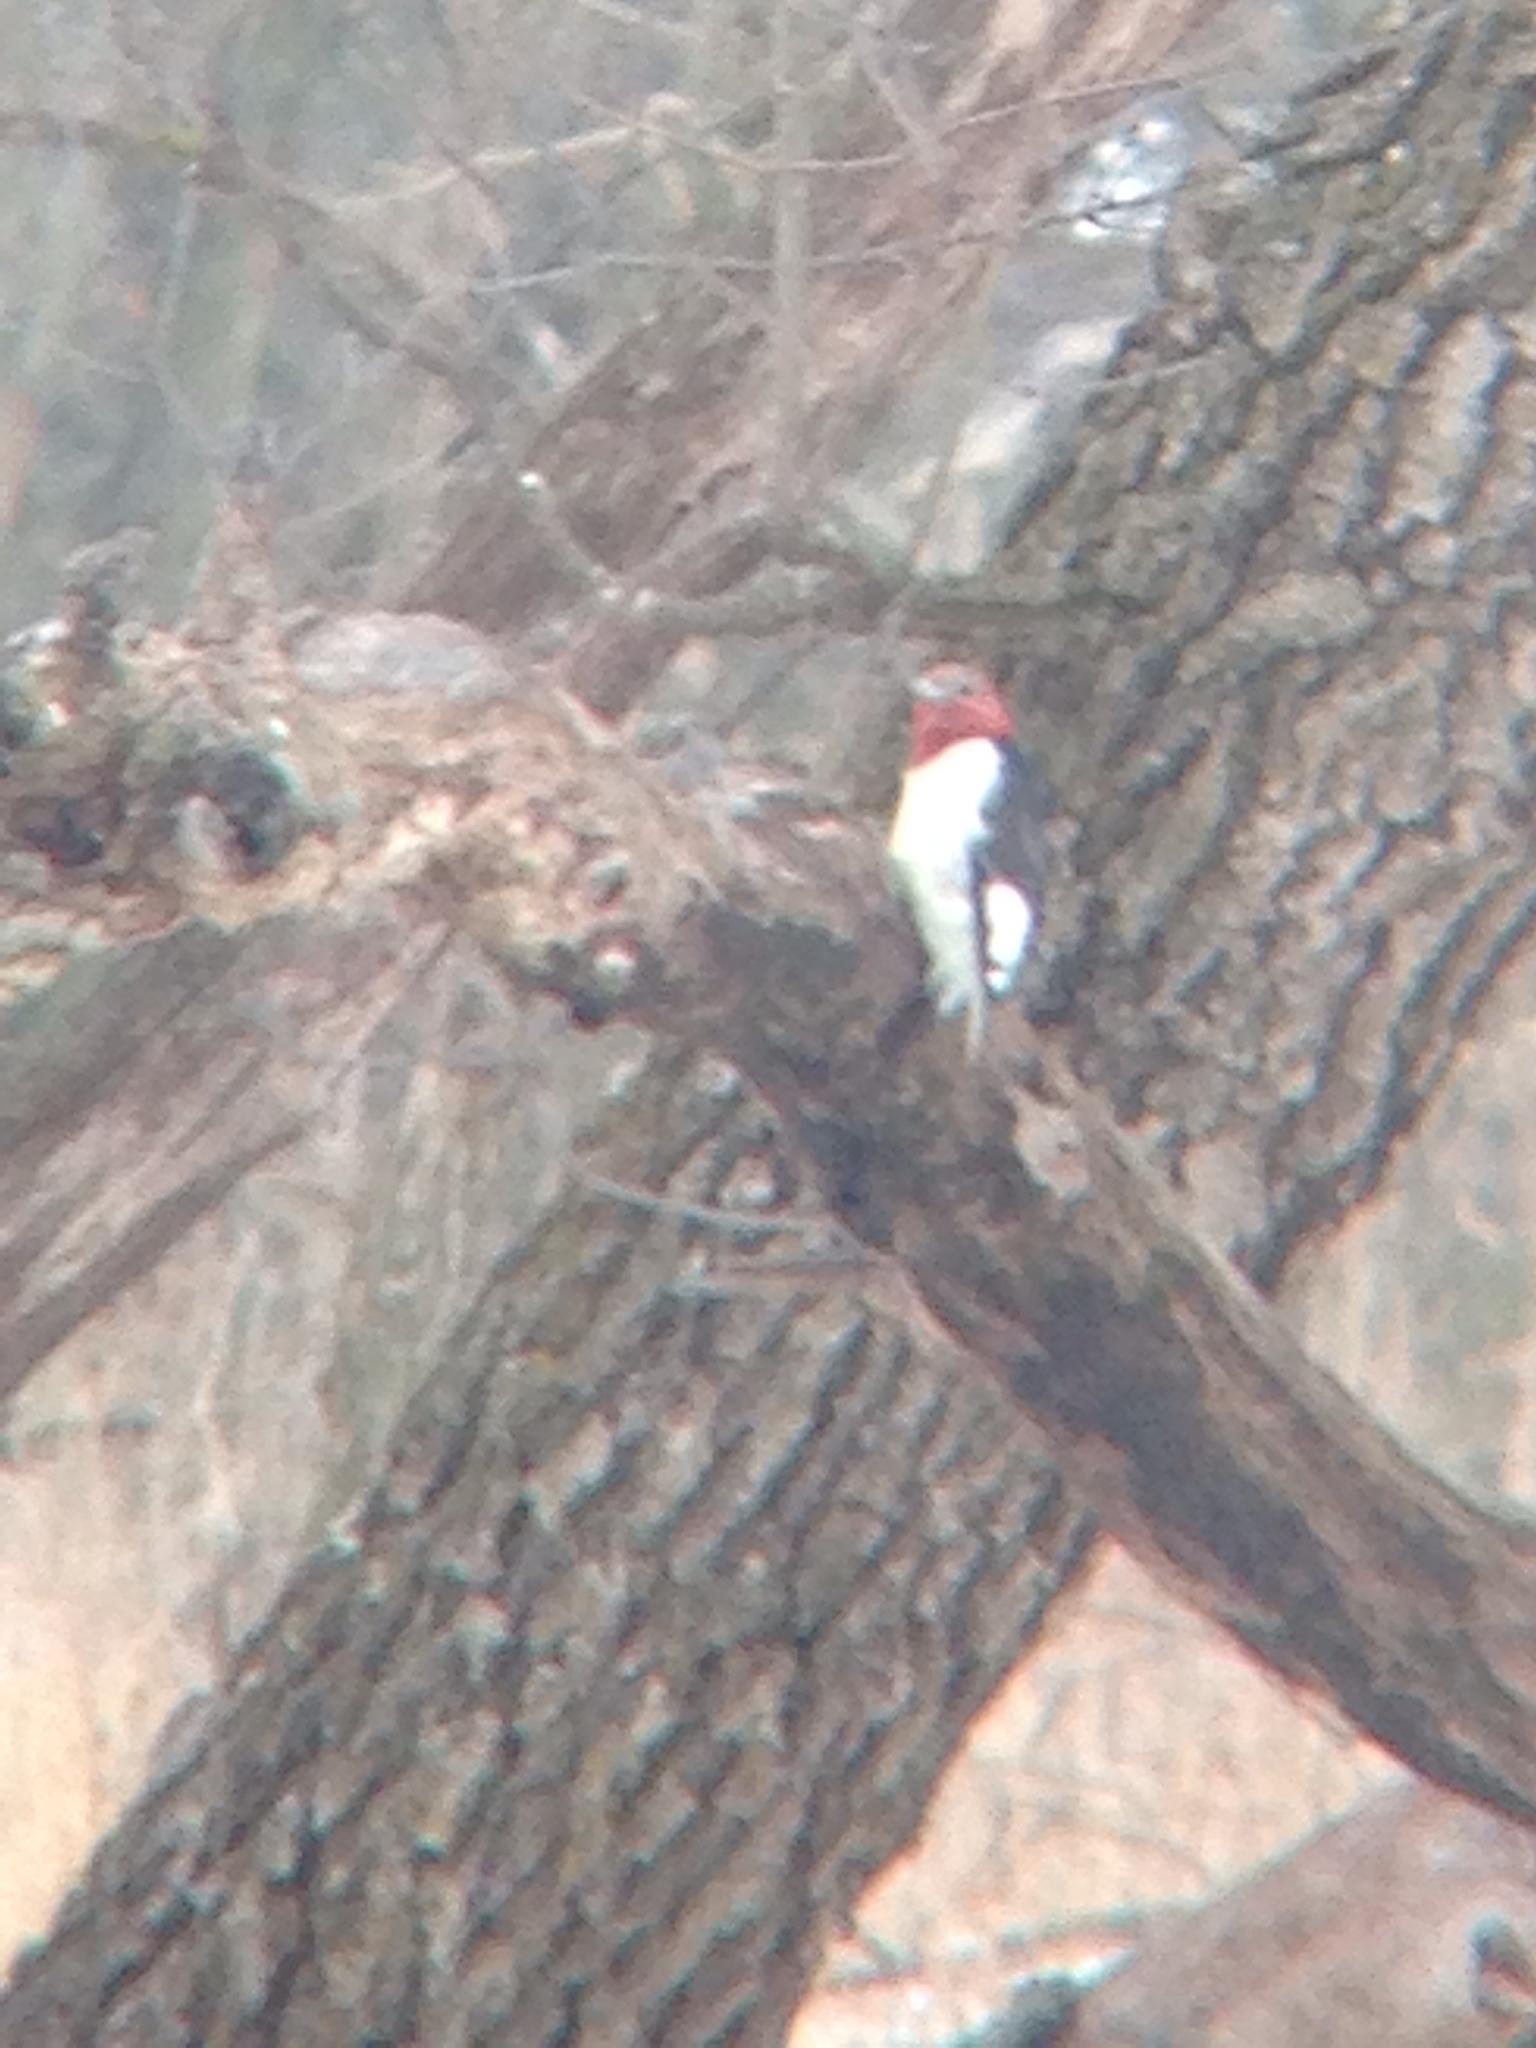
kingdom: Animalia
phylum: Chordata
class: Aves
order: Piciformes
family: Picidae
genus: Melanerpes
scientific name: Melanerpes erythrocephalus
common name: Red-headed woodpecker
